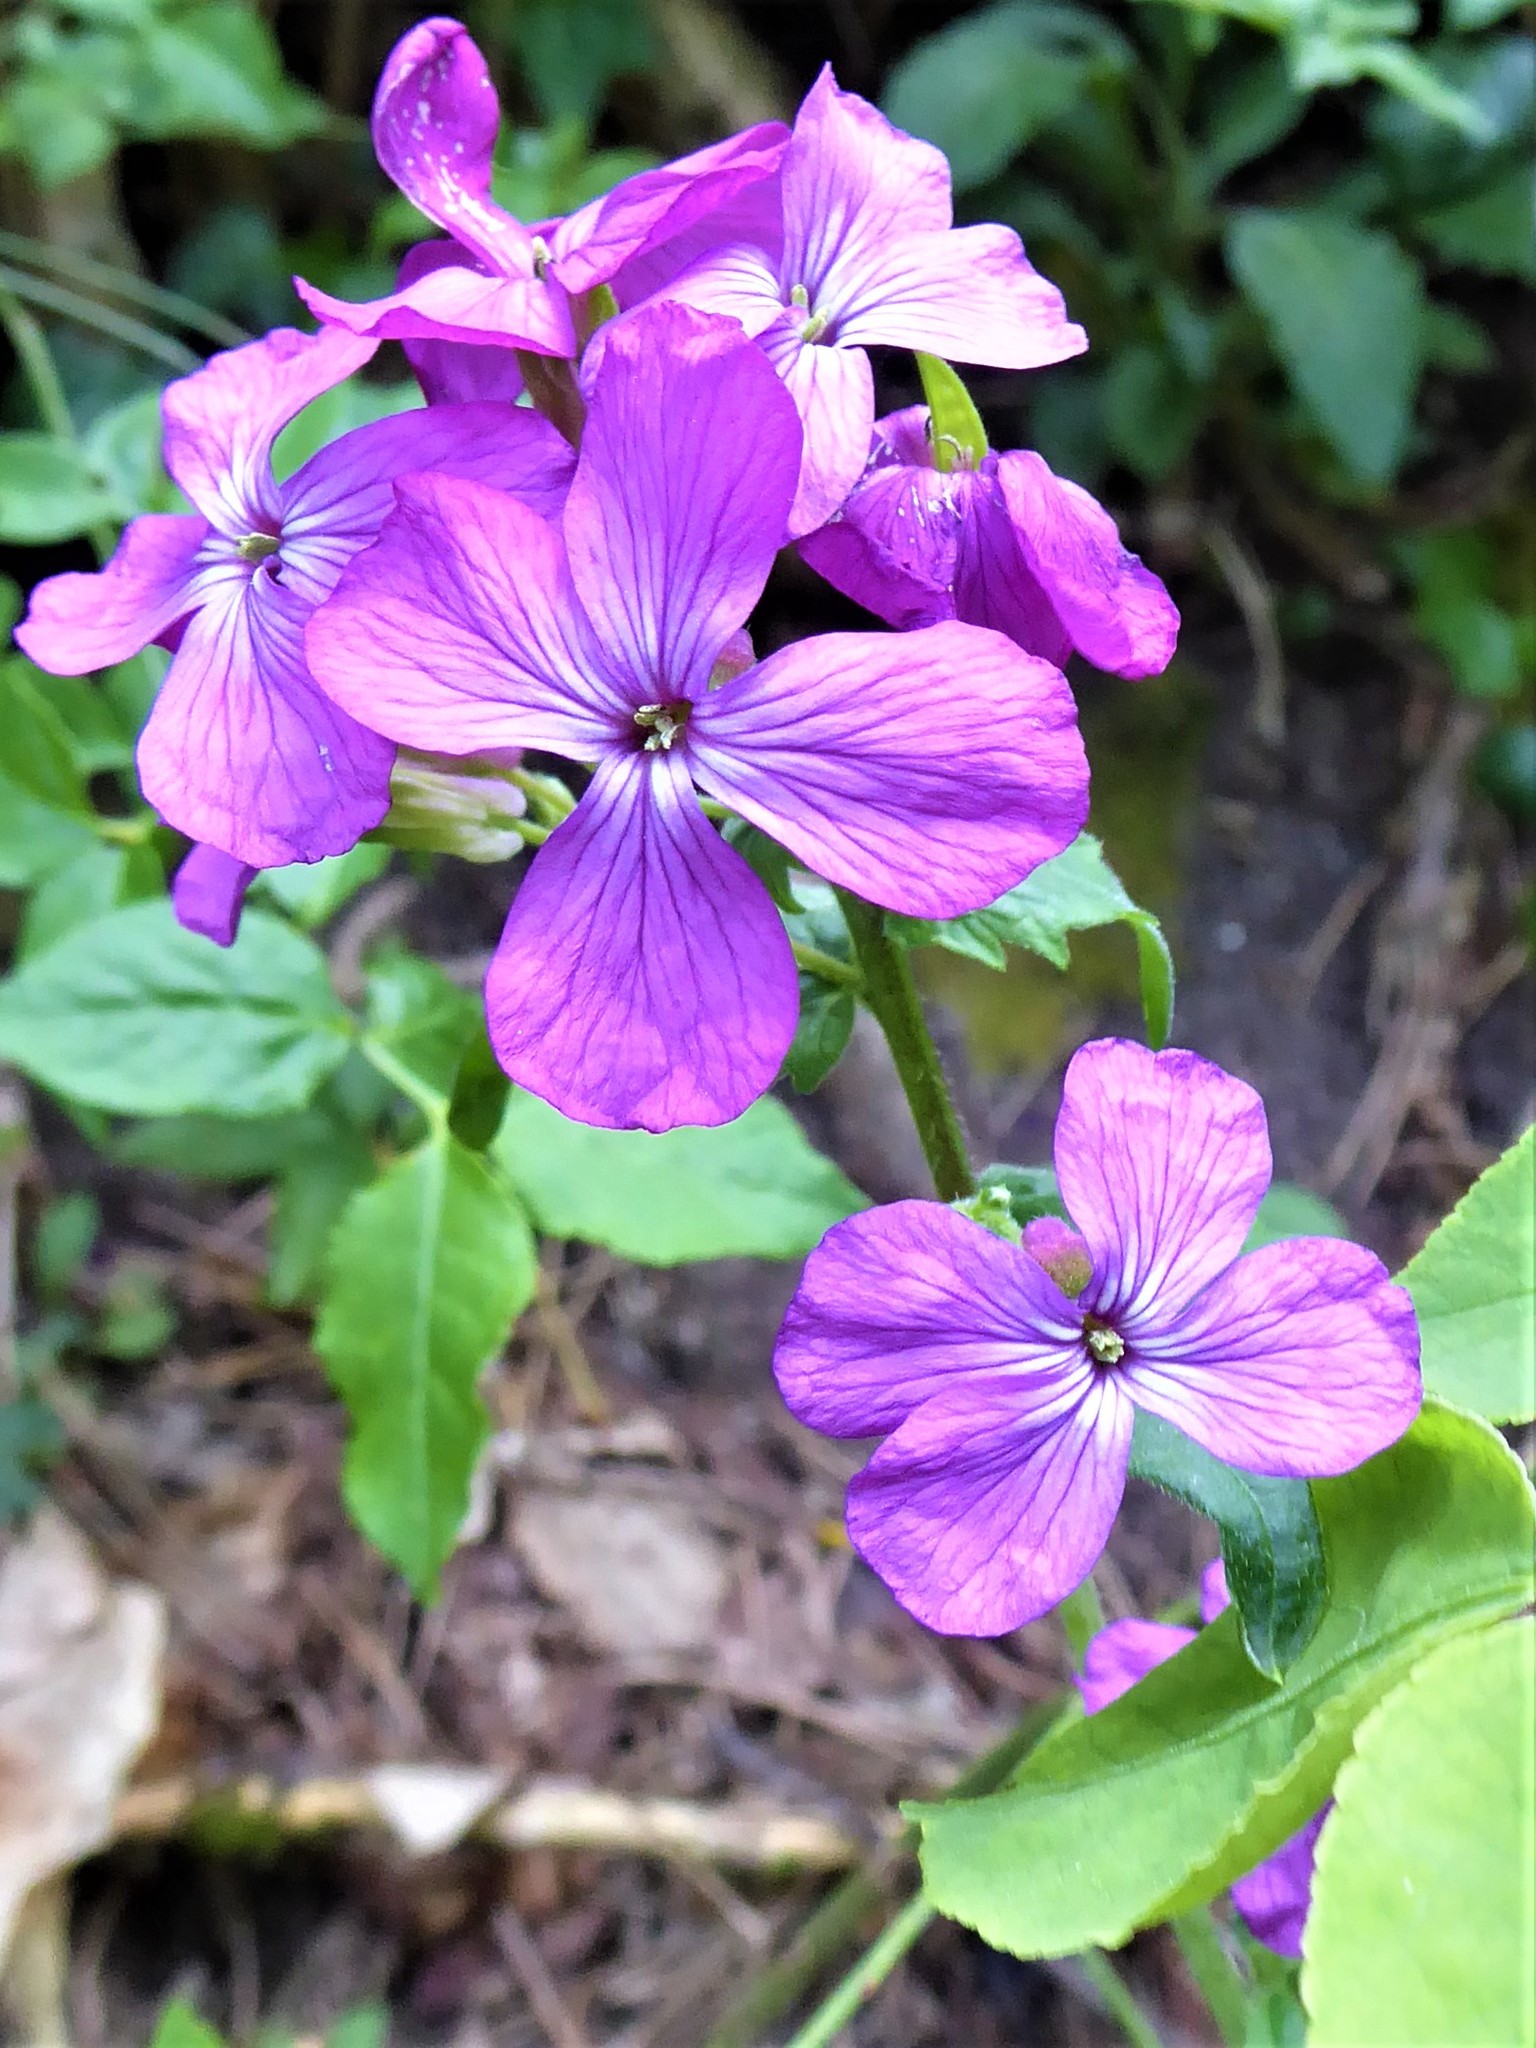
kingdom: Plantae
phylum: Tracheophyta
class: Magnoliopsida
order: Brassicales
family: Brassicaceae
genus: Lunaria
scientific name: Lunaria annua
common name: Honesty
